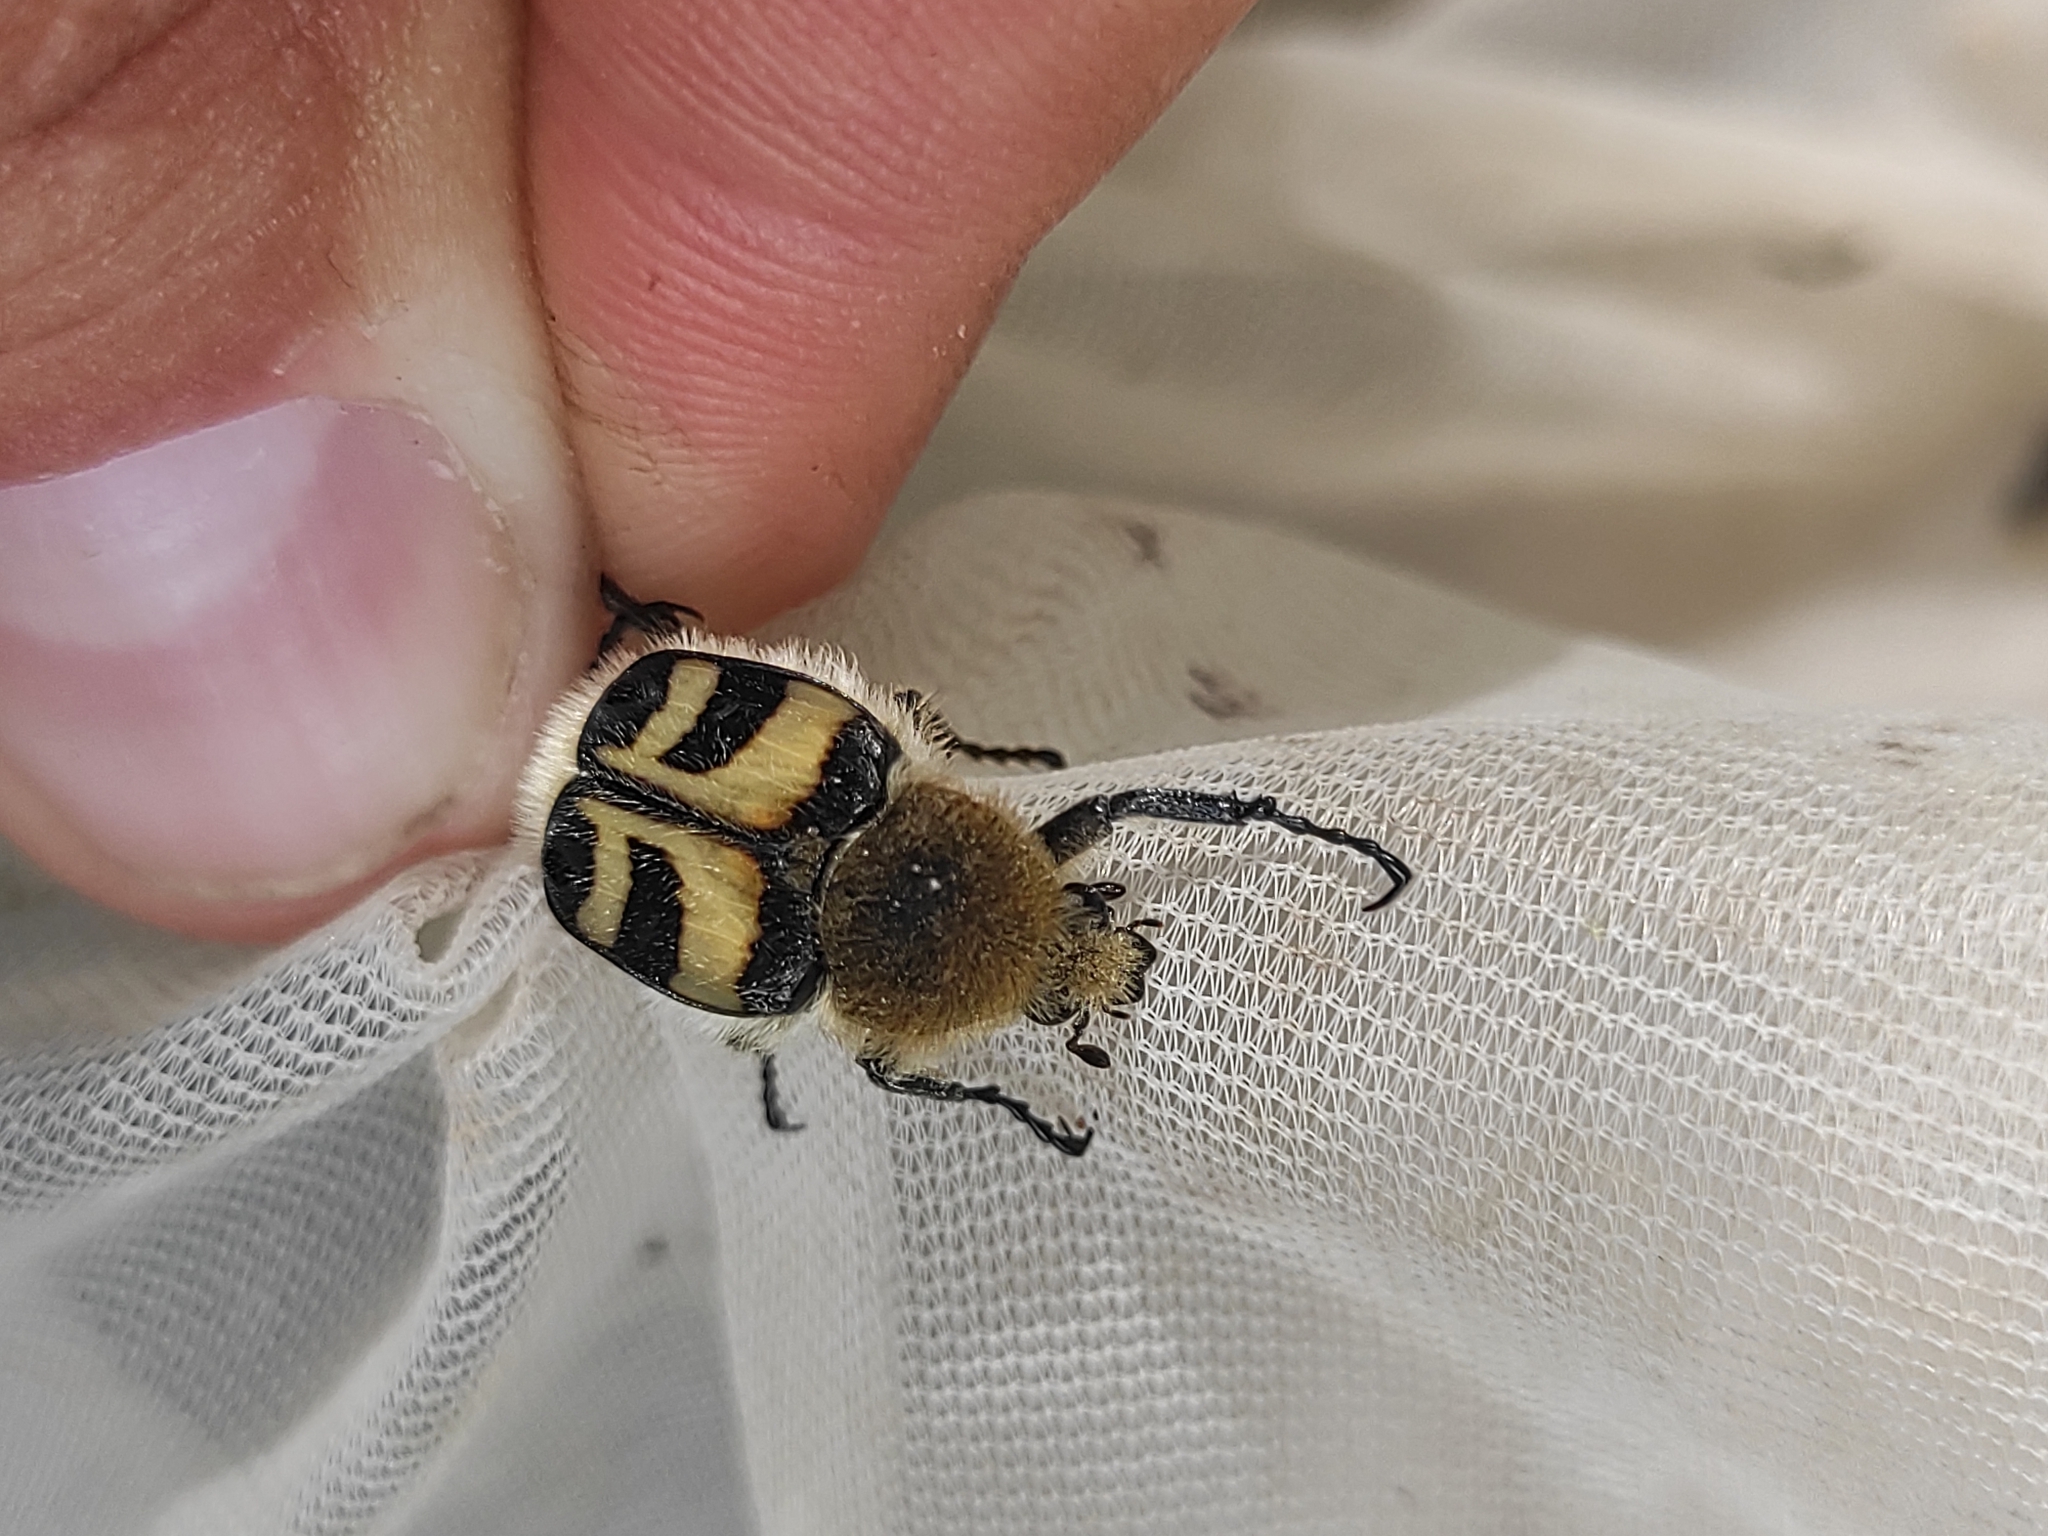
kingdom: Animalia
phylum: Arthropoda
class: Insecta
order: Coleoptera
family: Scarabaeidae
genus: Trichius
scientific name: Trichius fasciatus
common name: Bee beetle
